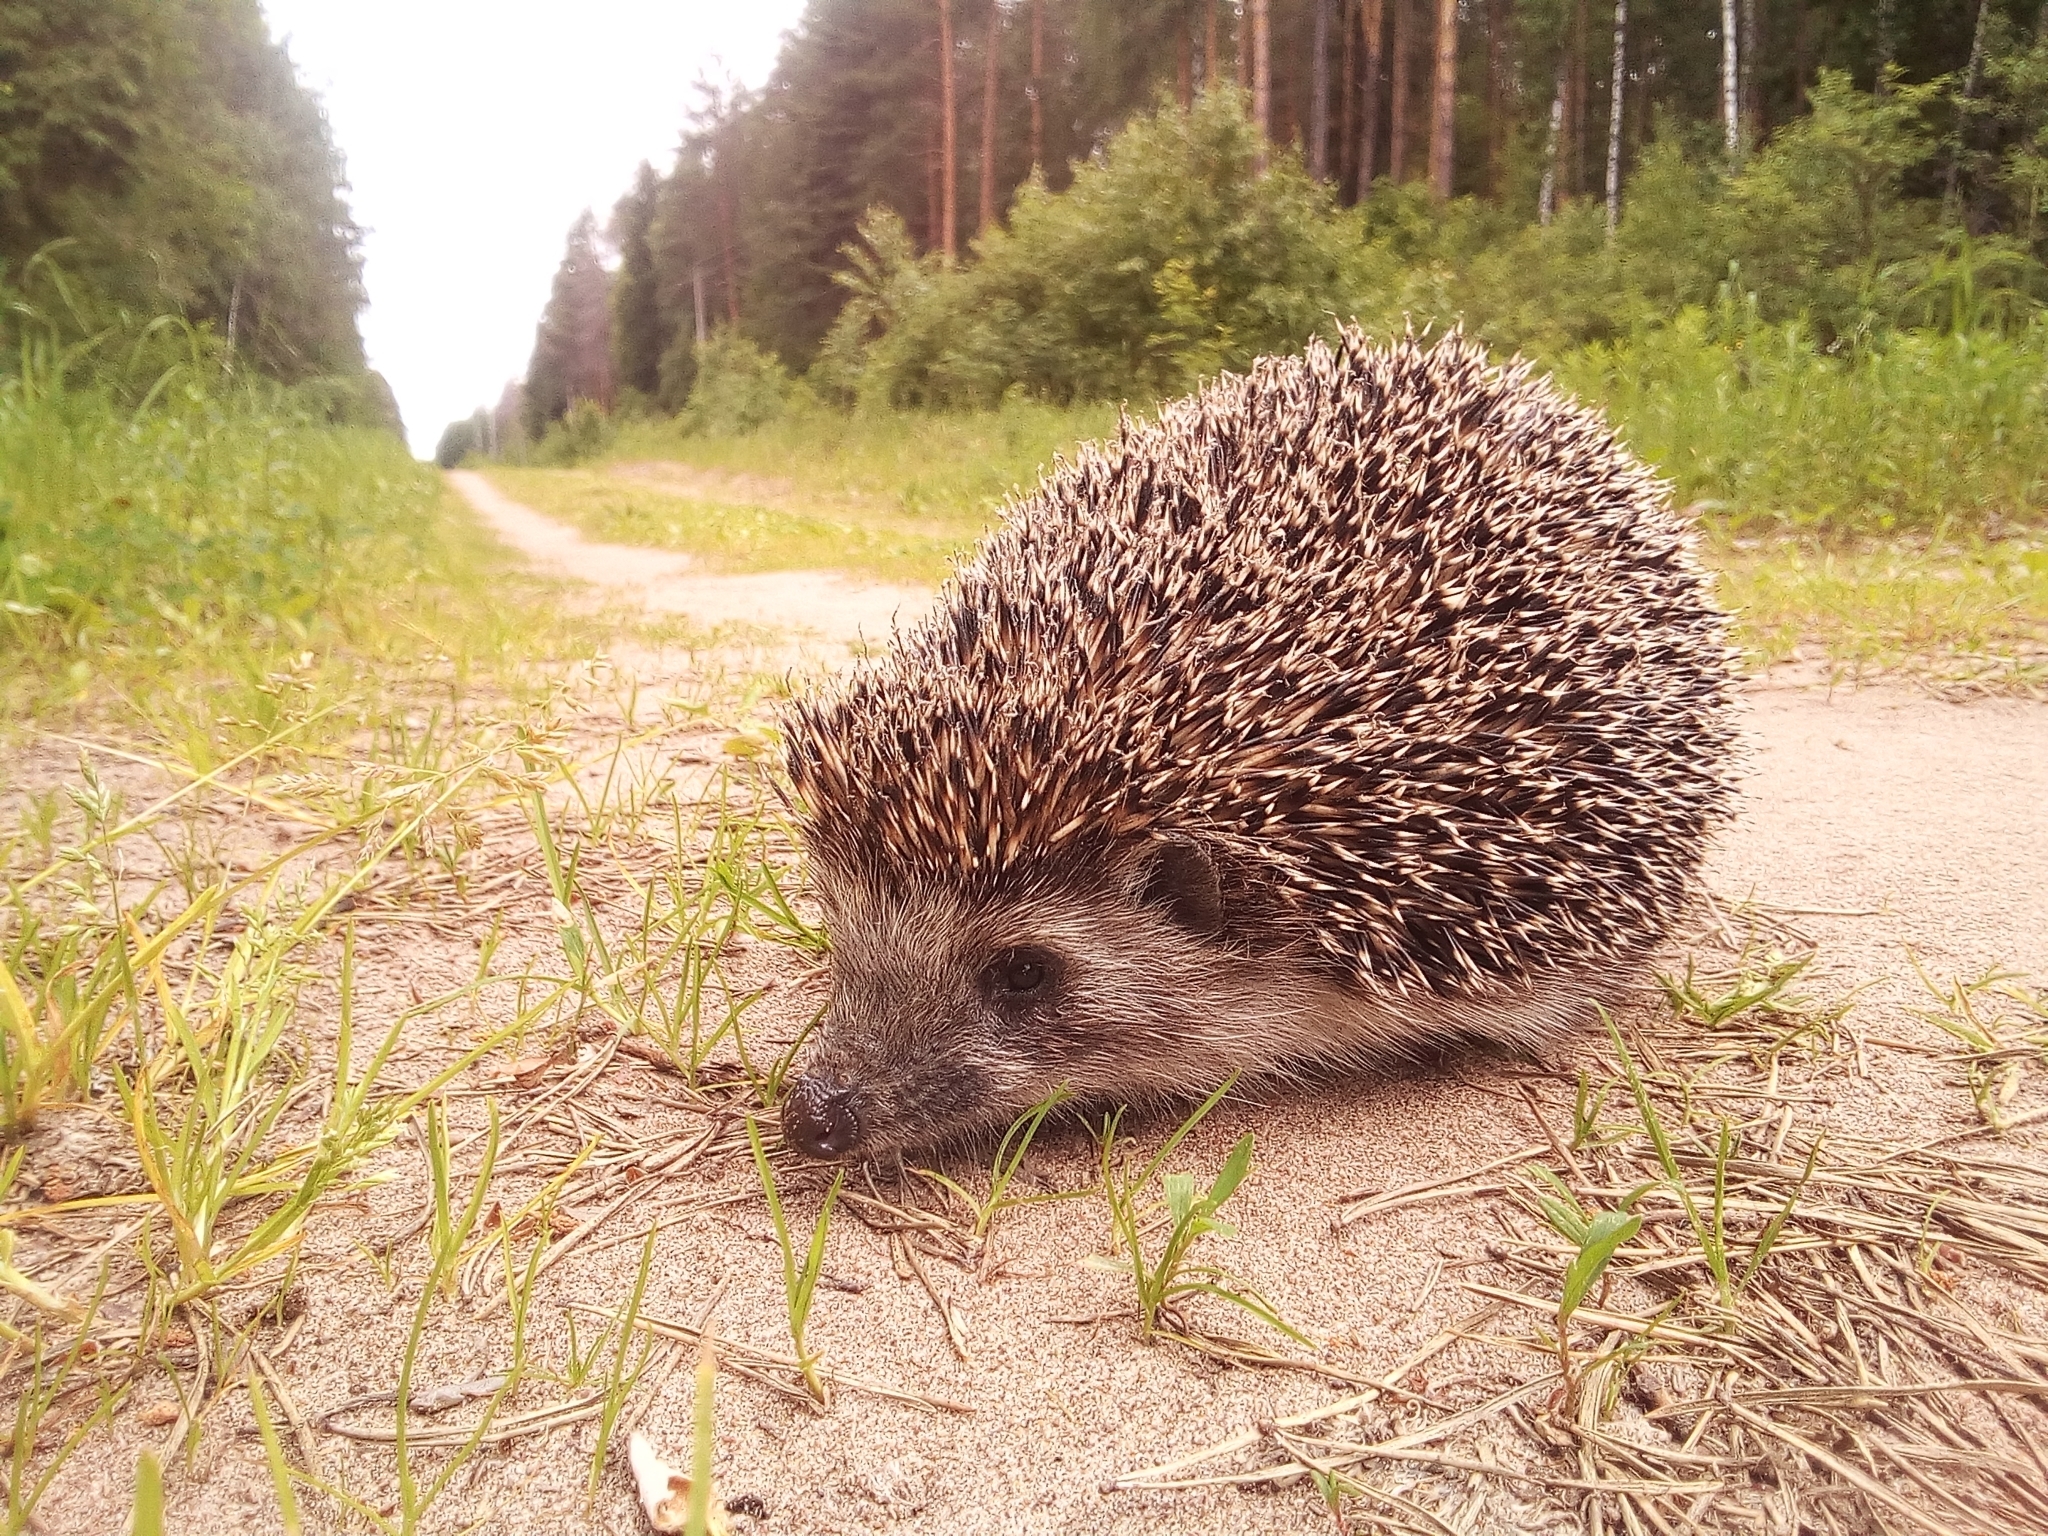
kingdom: Animalia
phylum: Chordata
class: Mammalia
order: Erinaceomorpha
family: Erinaceidae
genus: Erinaceus
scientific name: Erinaceus roumanicus
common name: Northern white-breasted hedgehog
